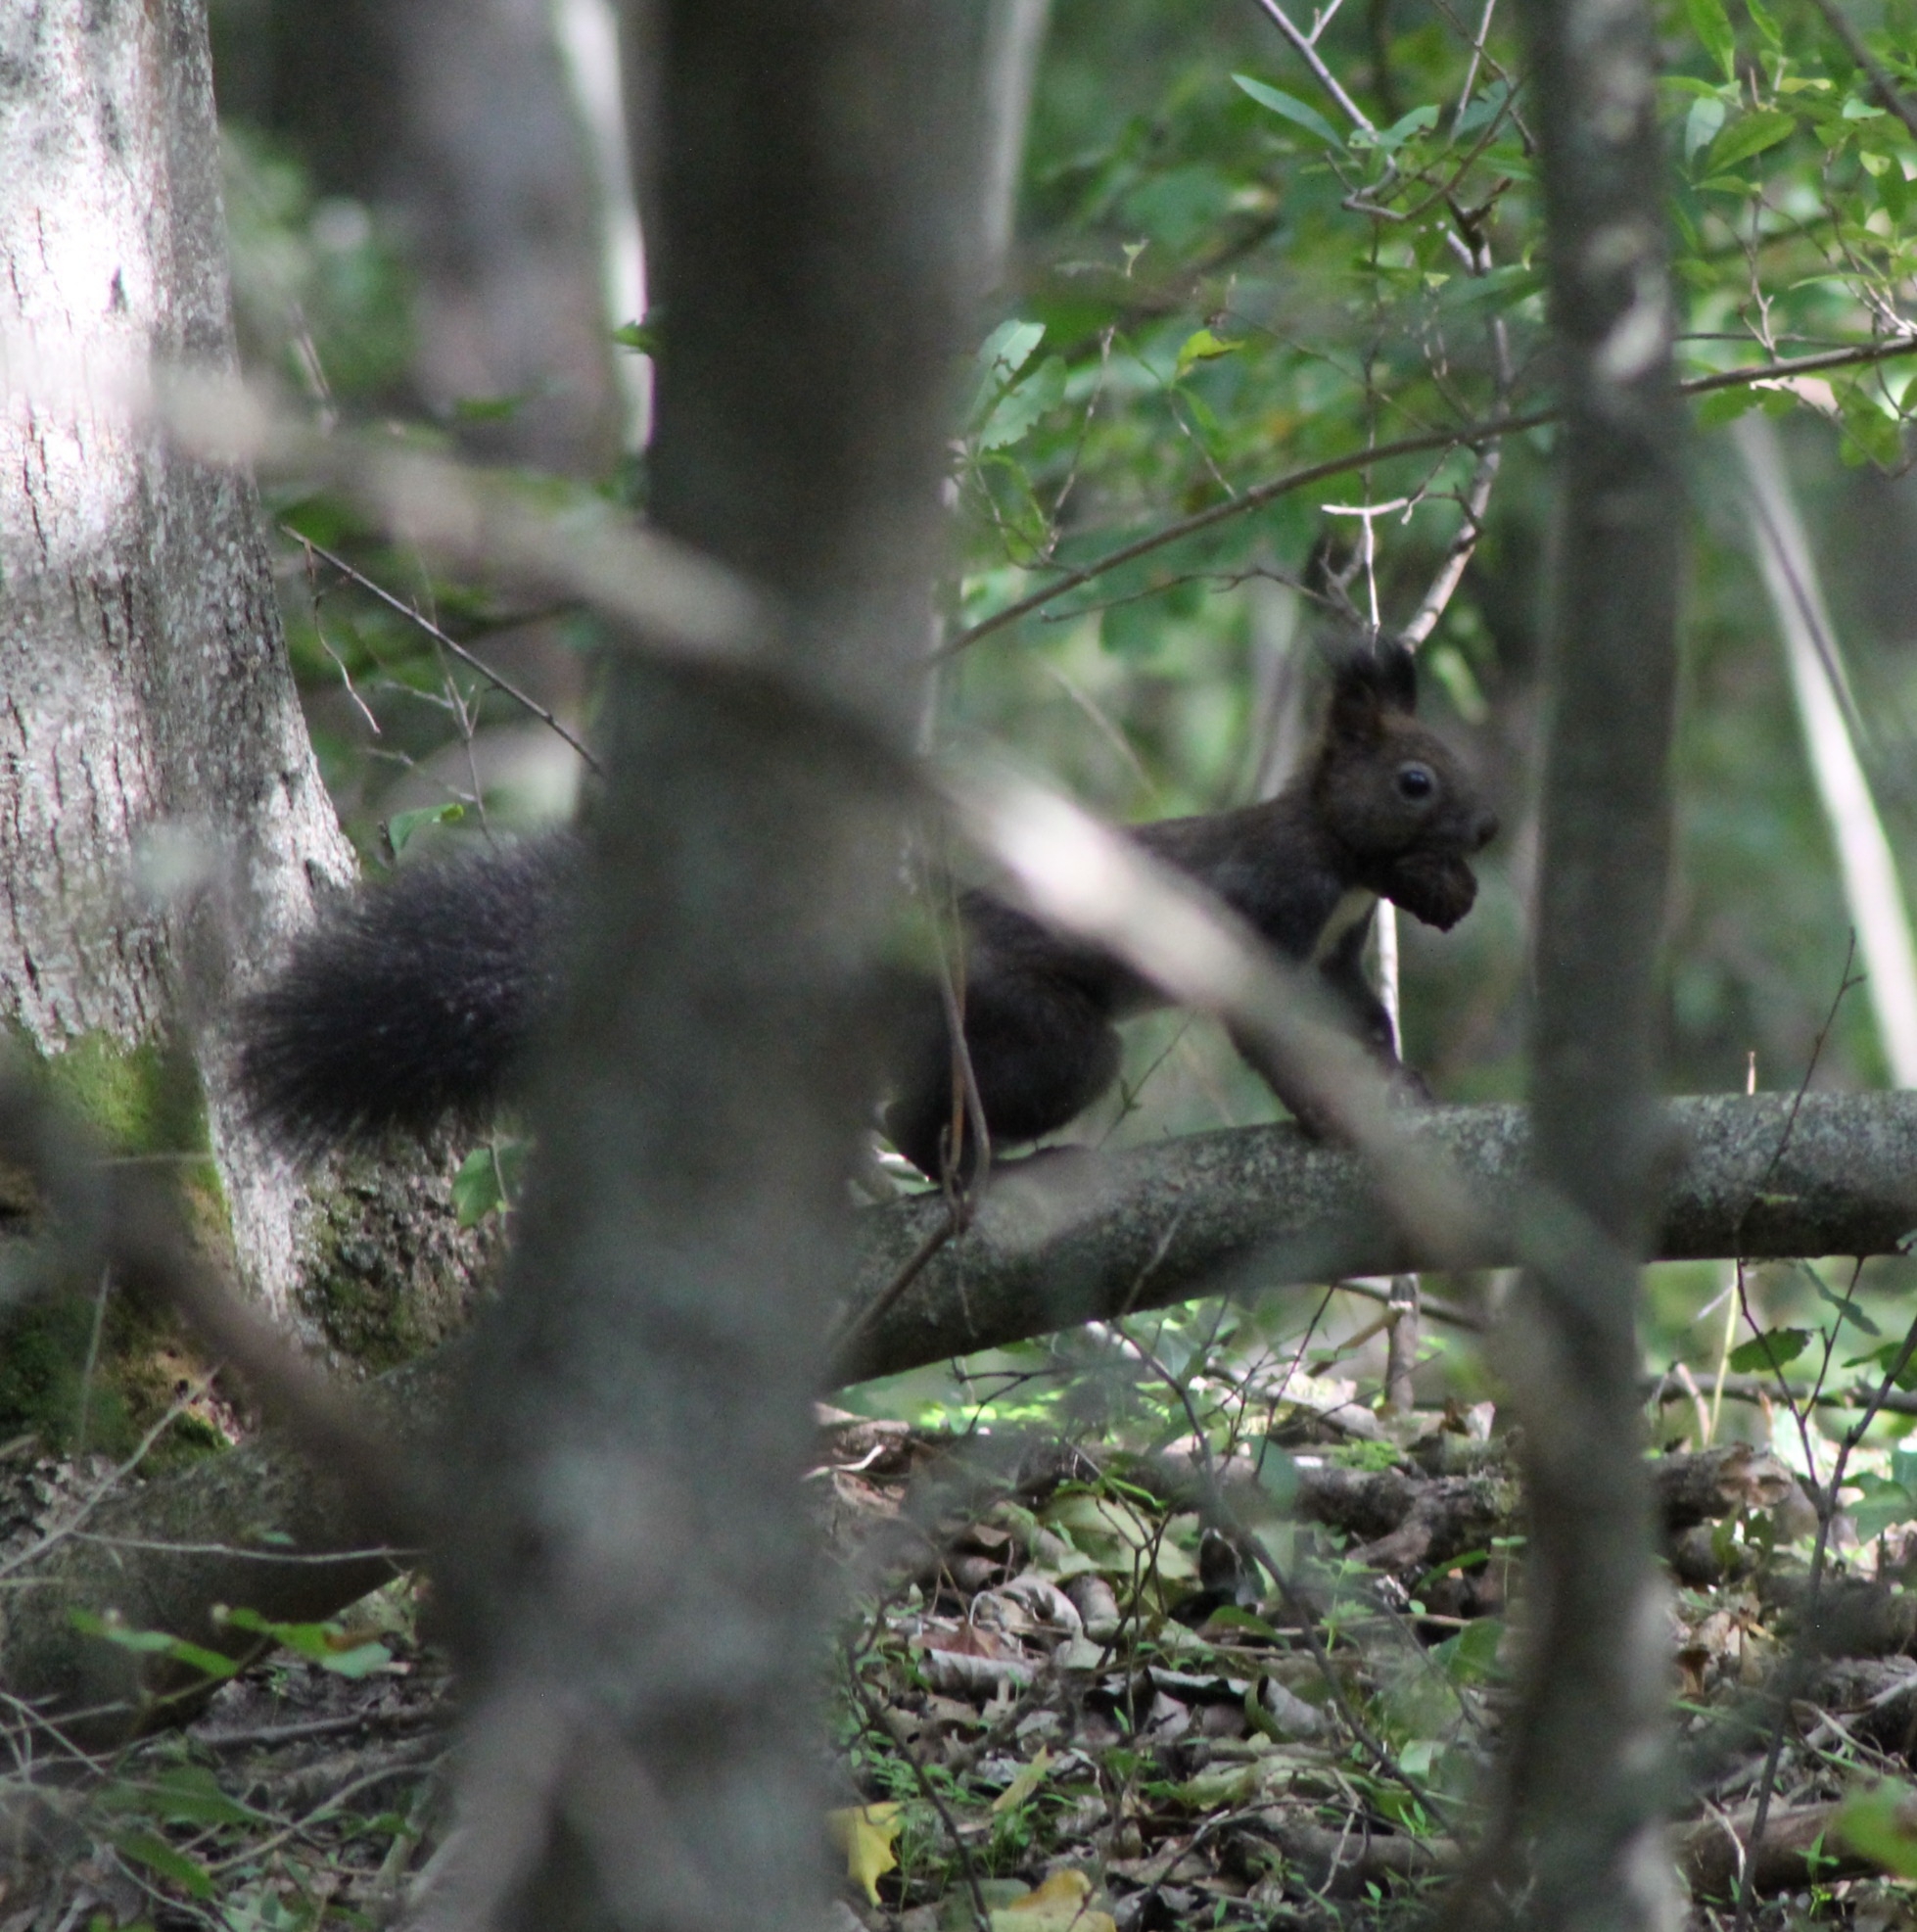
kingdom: Animalia
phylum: Chordata
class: Mammalia
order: Rodentia
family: Sciuridae
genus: Sciurus
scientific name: Sciurus vulgaris
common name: Eurasian red squirrel
